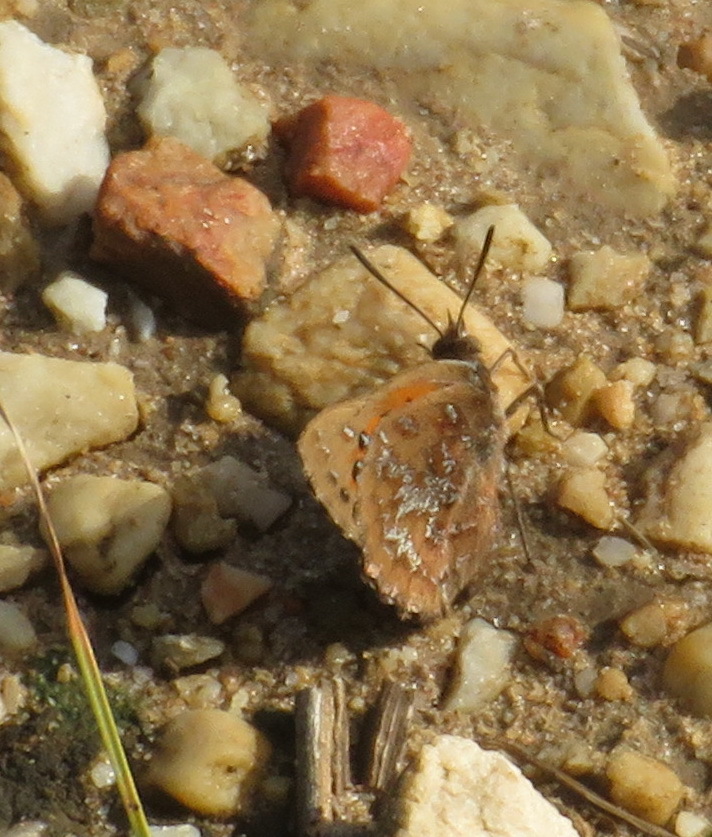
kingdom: Animalia
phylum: Arthropoda
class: Insecta
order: Lepidoptera
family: Lycaenidae
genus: Aloeides
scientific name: Aloeides thyra
